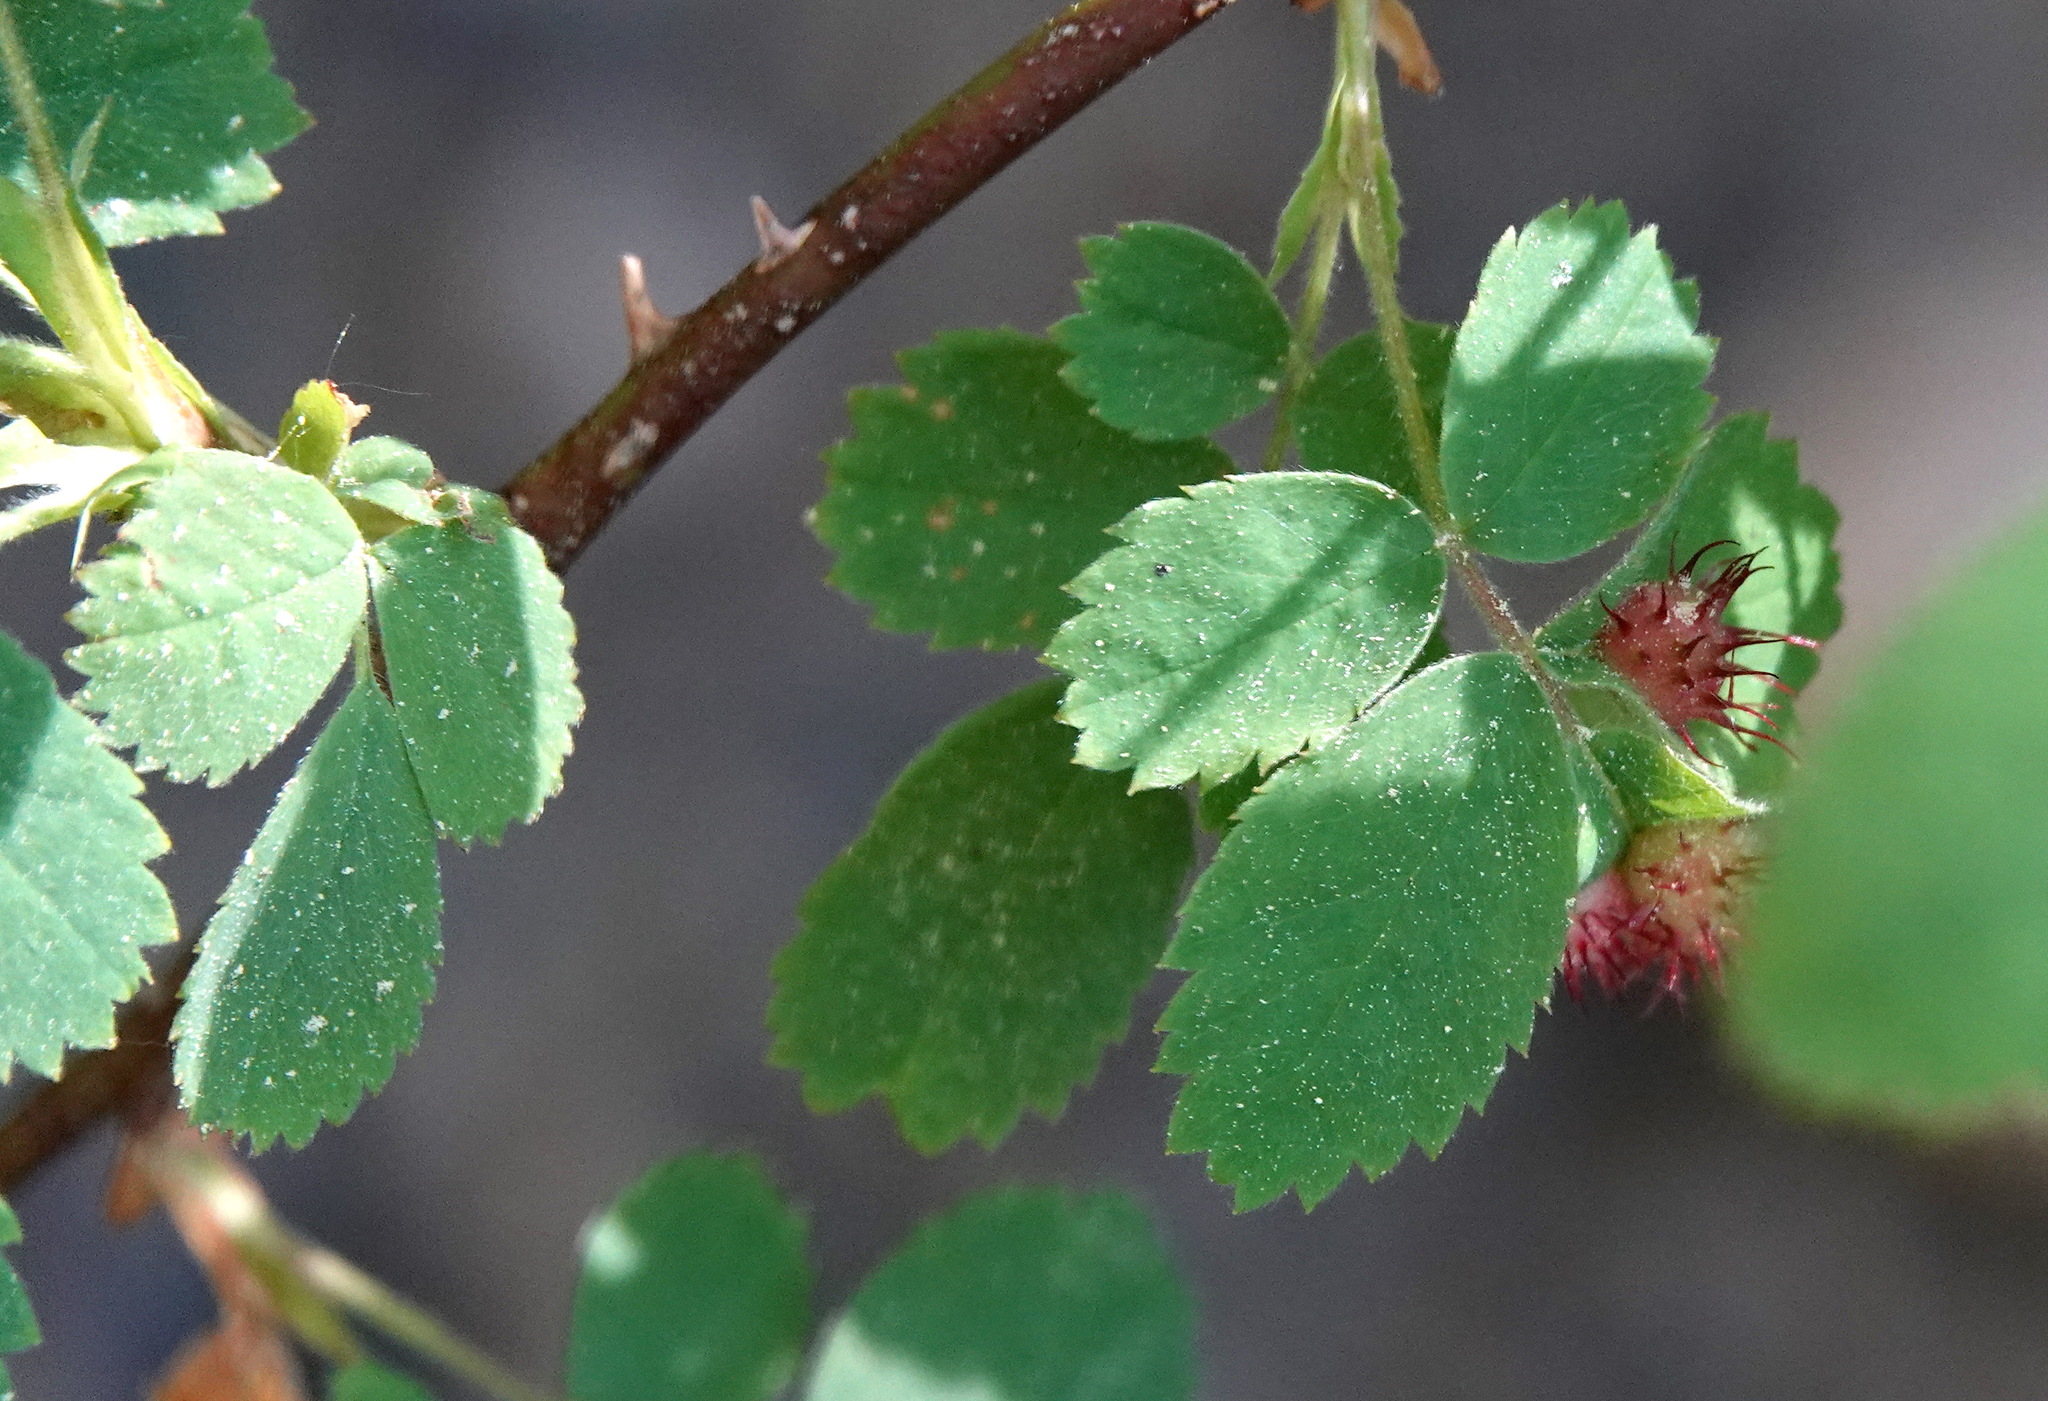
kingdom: Animalia
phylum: Arthropoda
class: Insecta
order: Hymenoptera
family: Cynipidae
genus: Diplolepis
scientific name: Diplolepis polita
